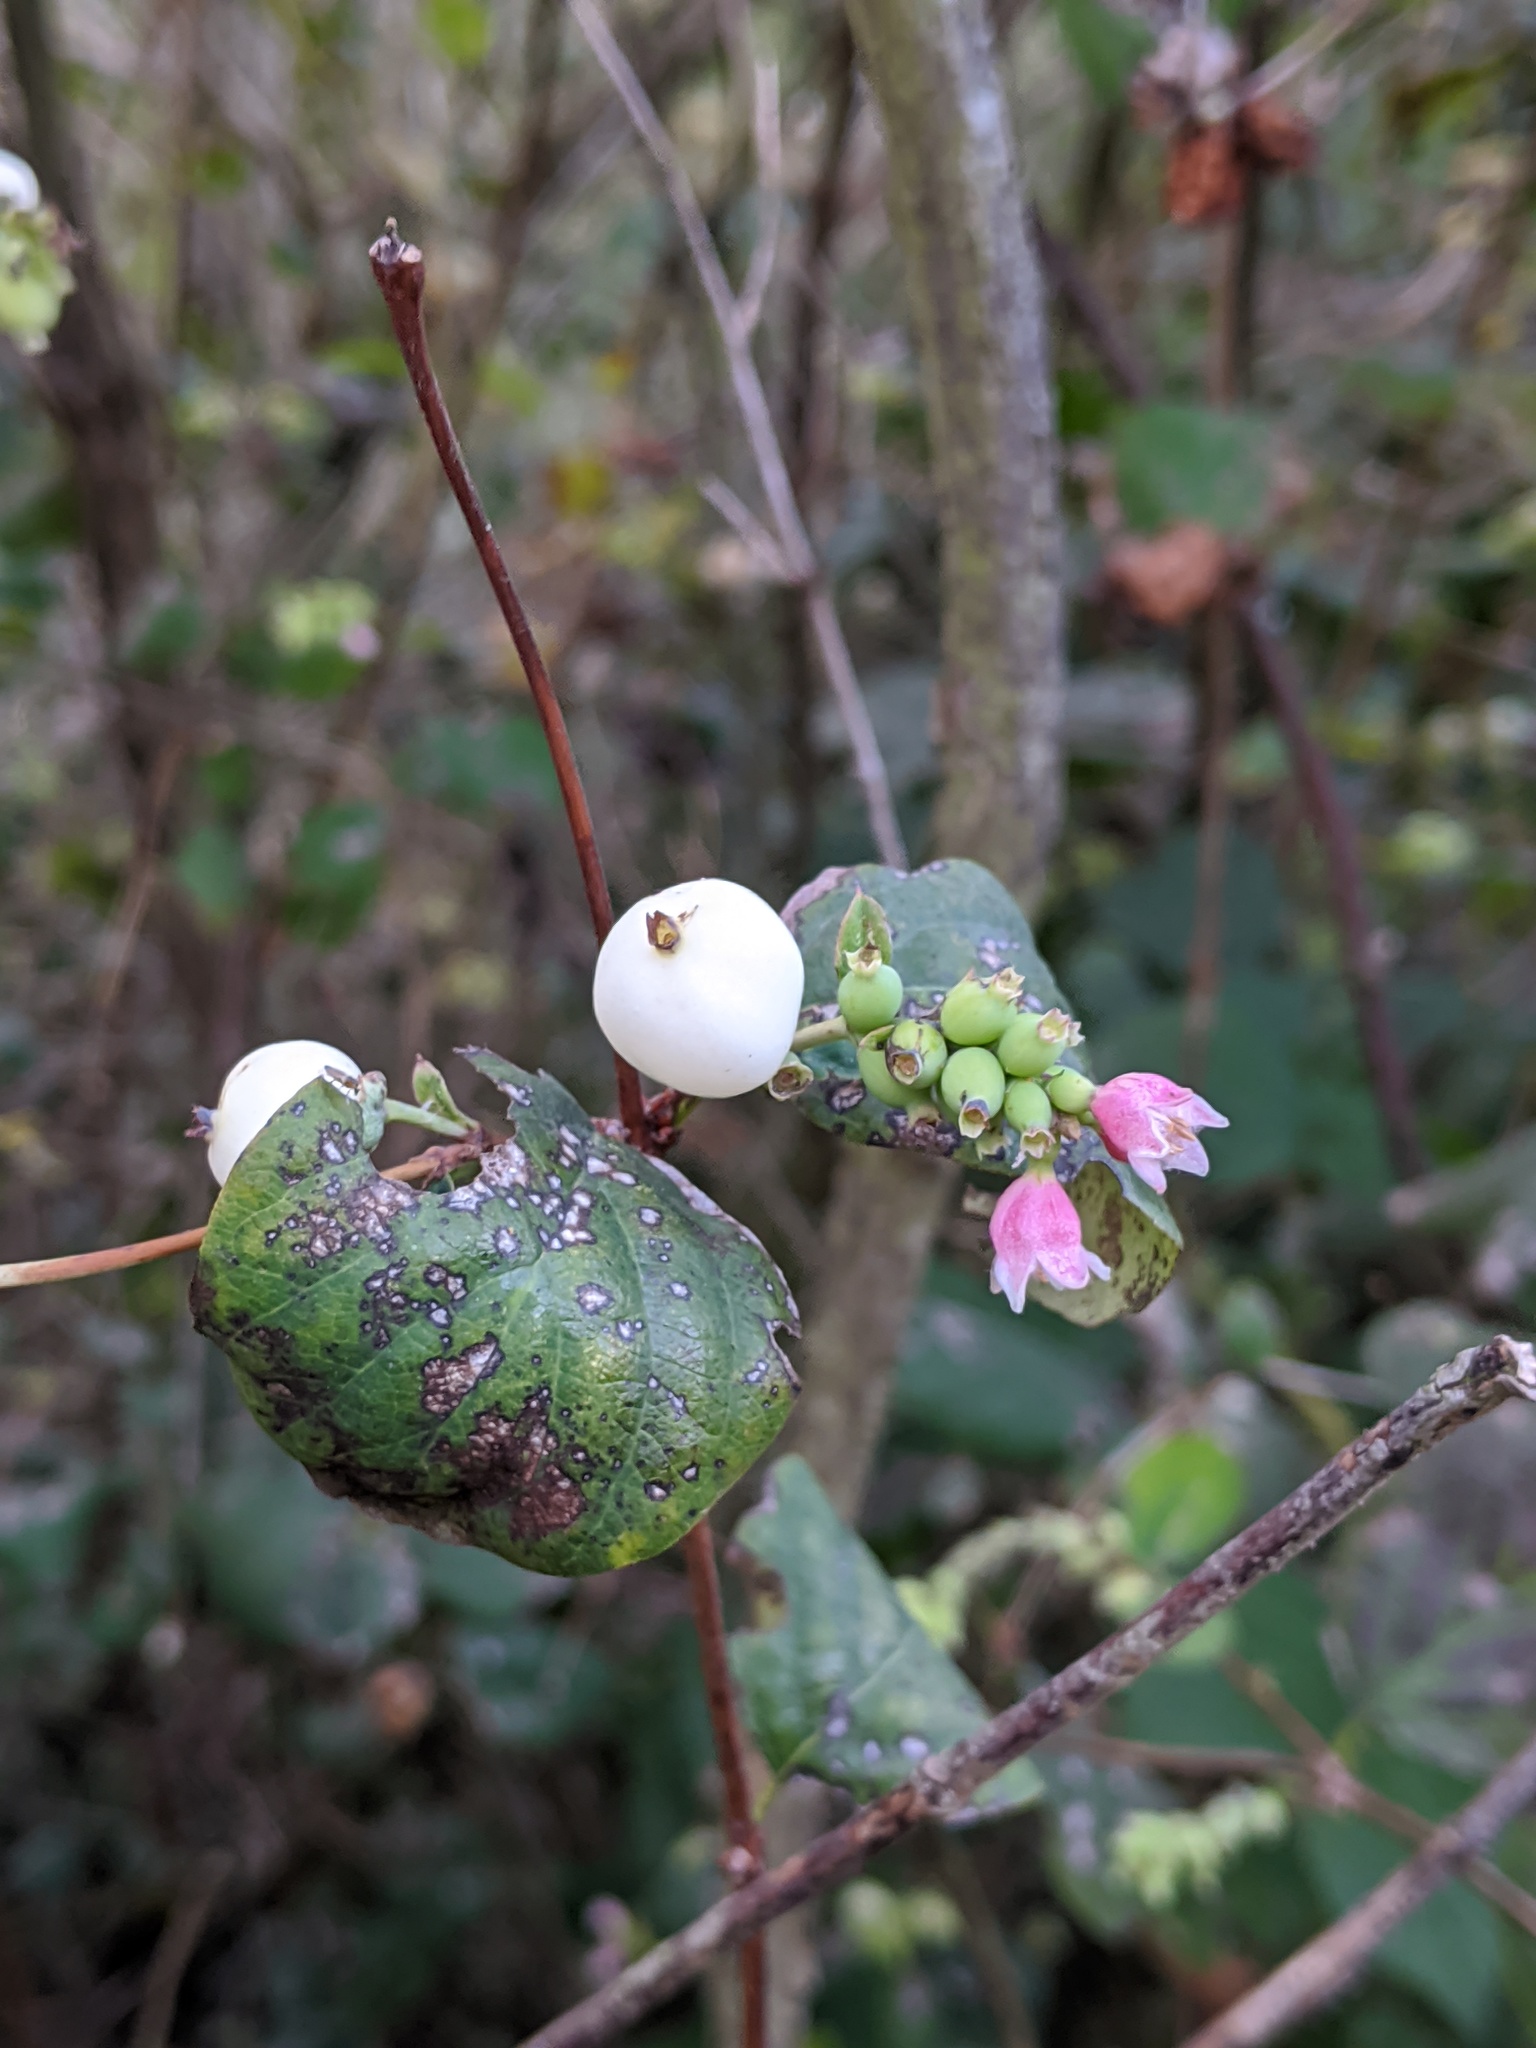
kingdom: Plantae
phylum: Tracheophyta
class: Magnoliopsida
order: Dipsacales
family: Caprifoliaceae
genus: Symphoricarpos
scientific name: Symphoricarpos albus
